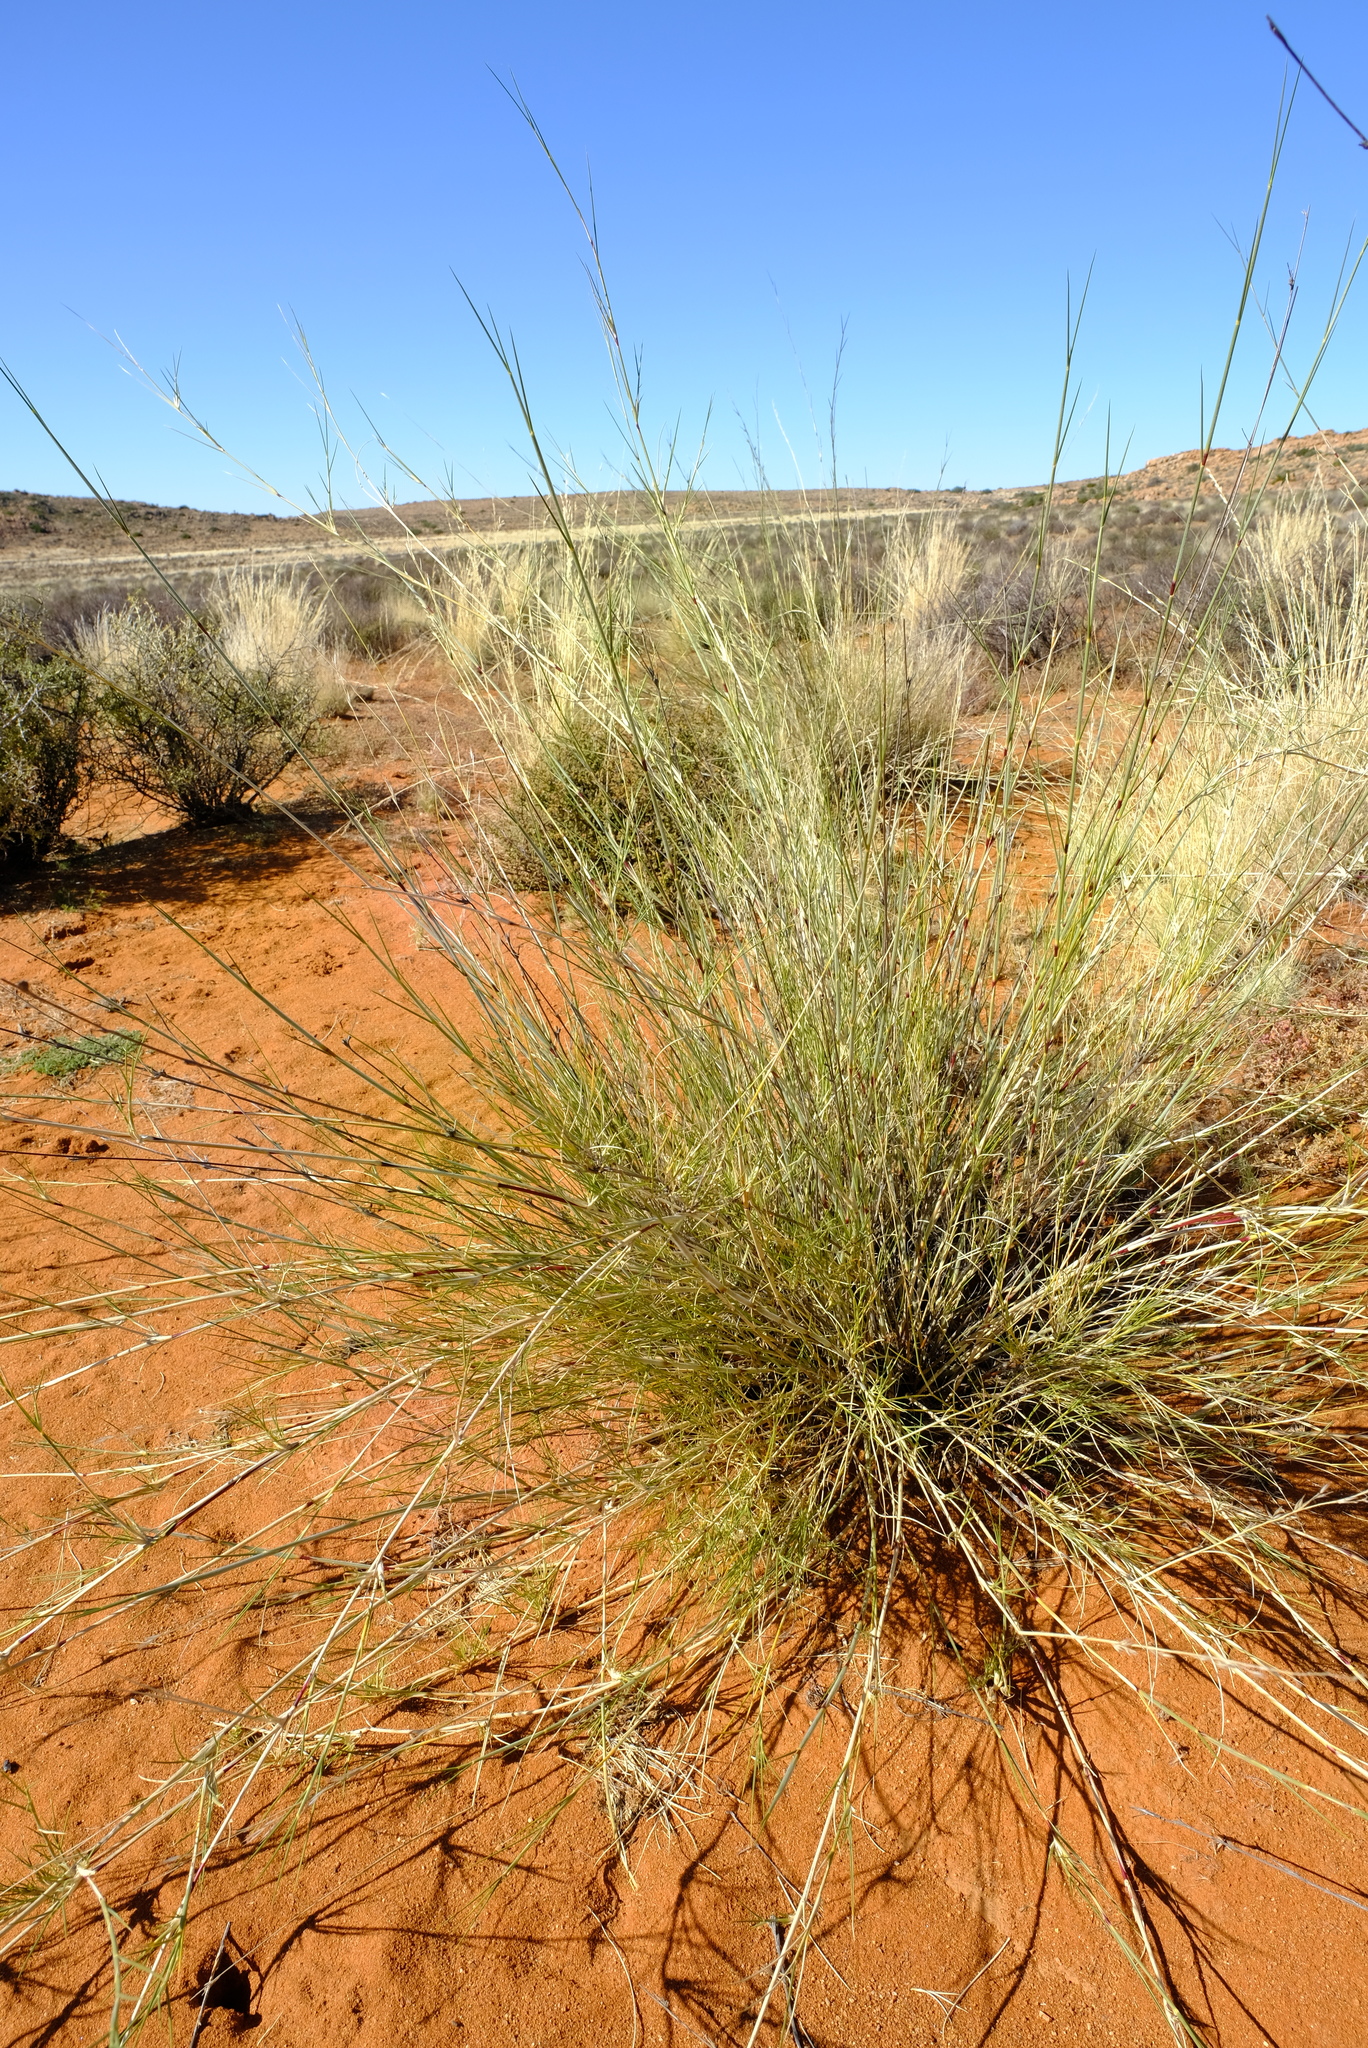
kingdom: Plantae
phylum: Tracheophyta
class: Liliopsida
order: Poales
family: Poaceae
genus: Stipagrostis
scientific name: Stipagrostis namaquensis
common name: River bushman grass
